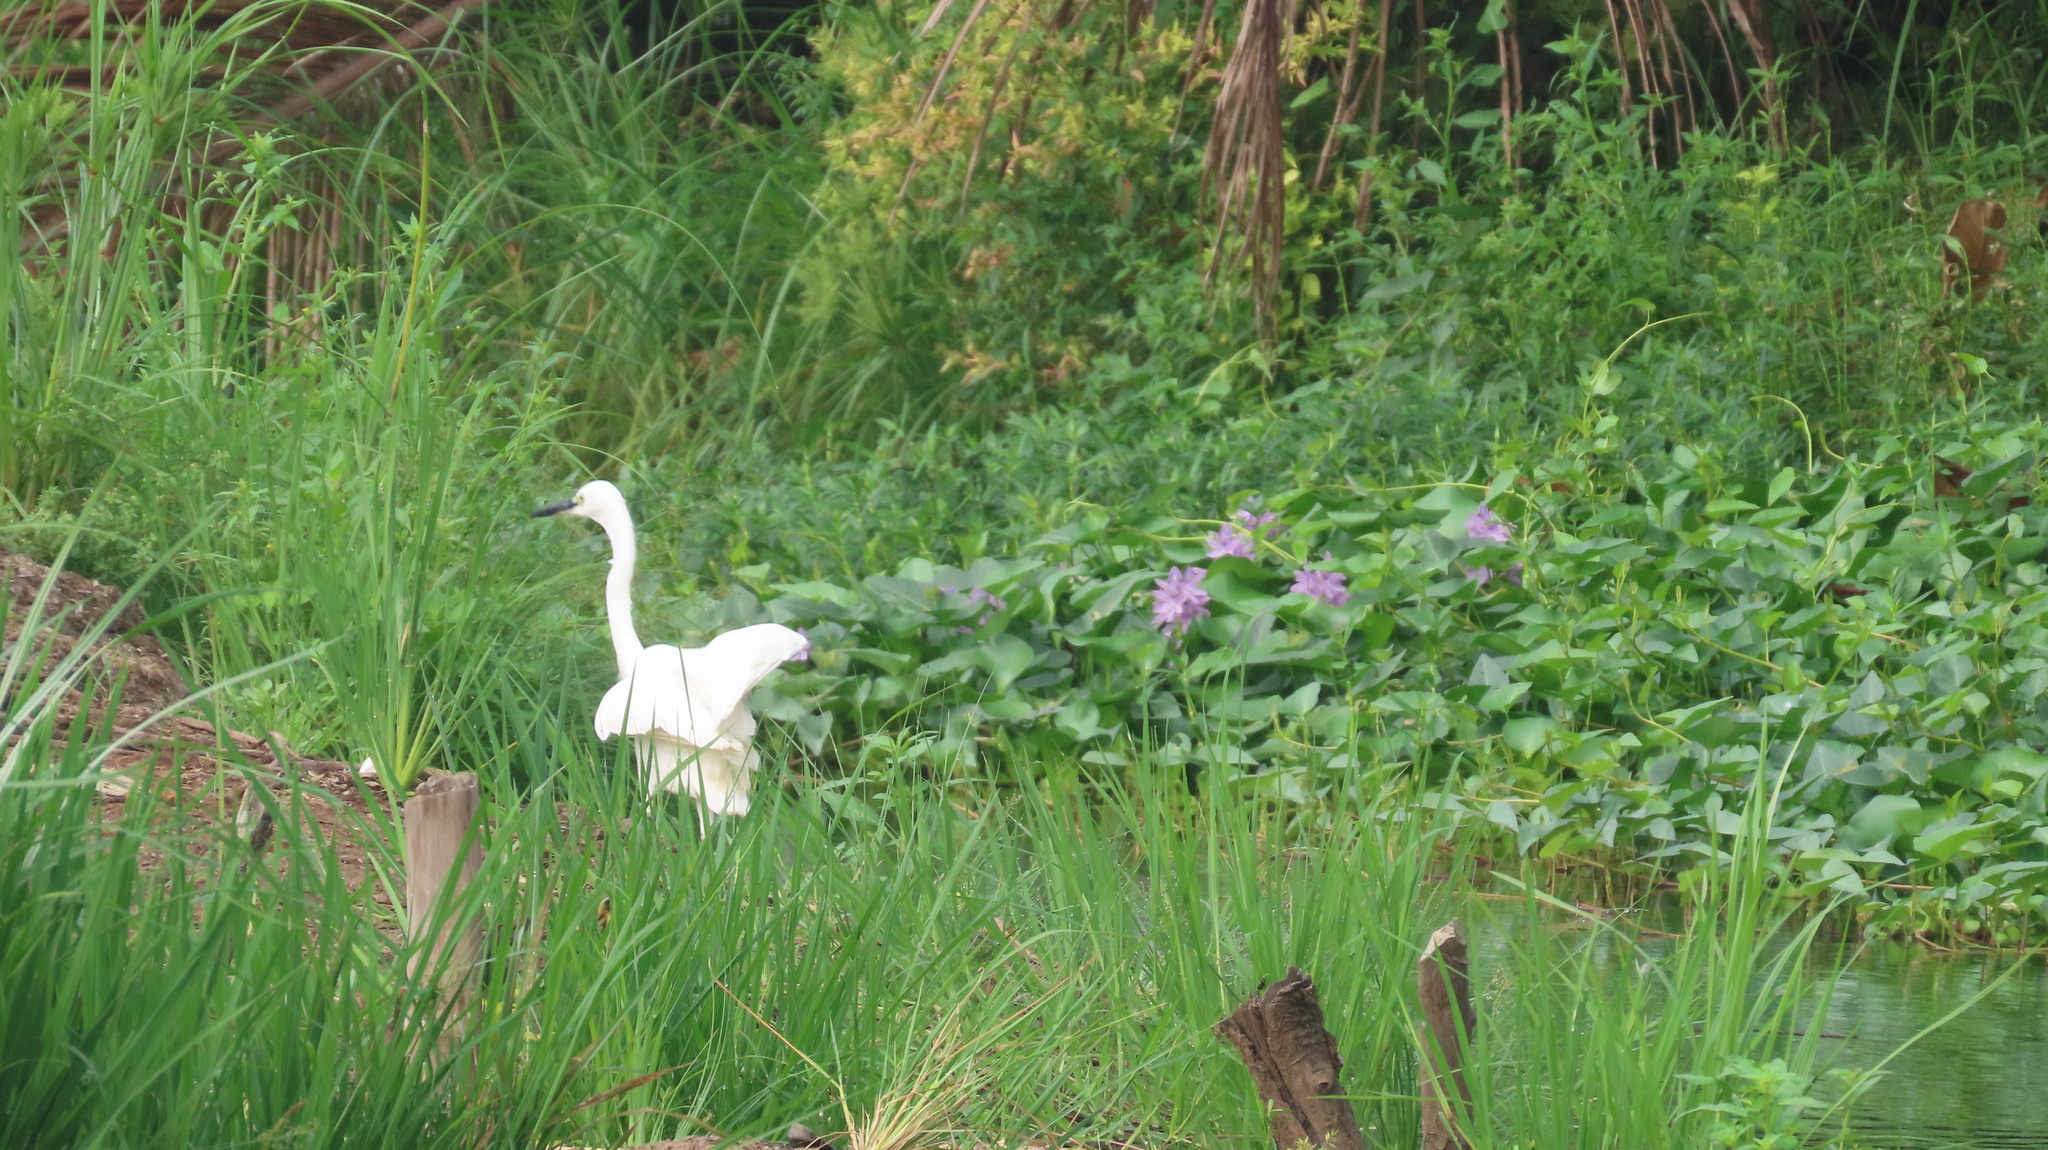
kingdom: Animalia
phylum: Chordata
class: Aves
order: Pelecaniformes
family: Ardeidae
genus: Egretta
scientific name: Egretta garzetta
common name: Little egret
